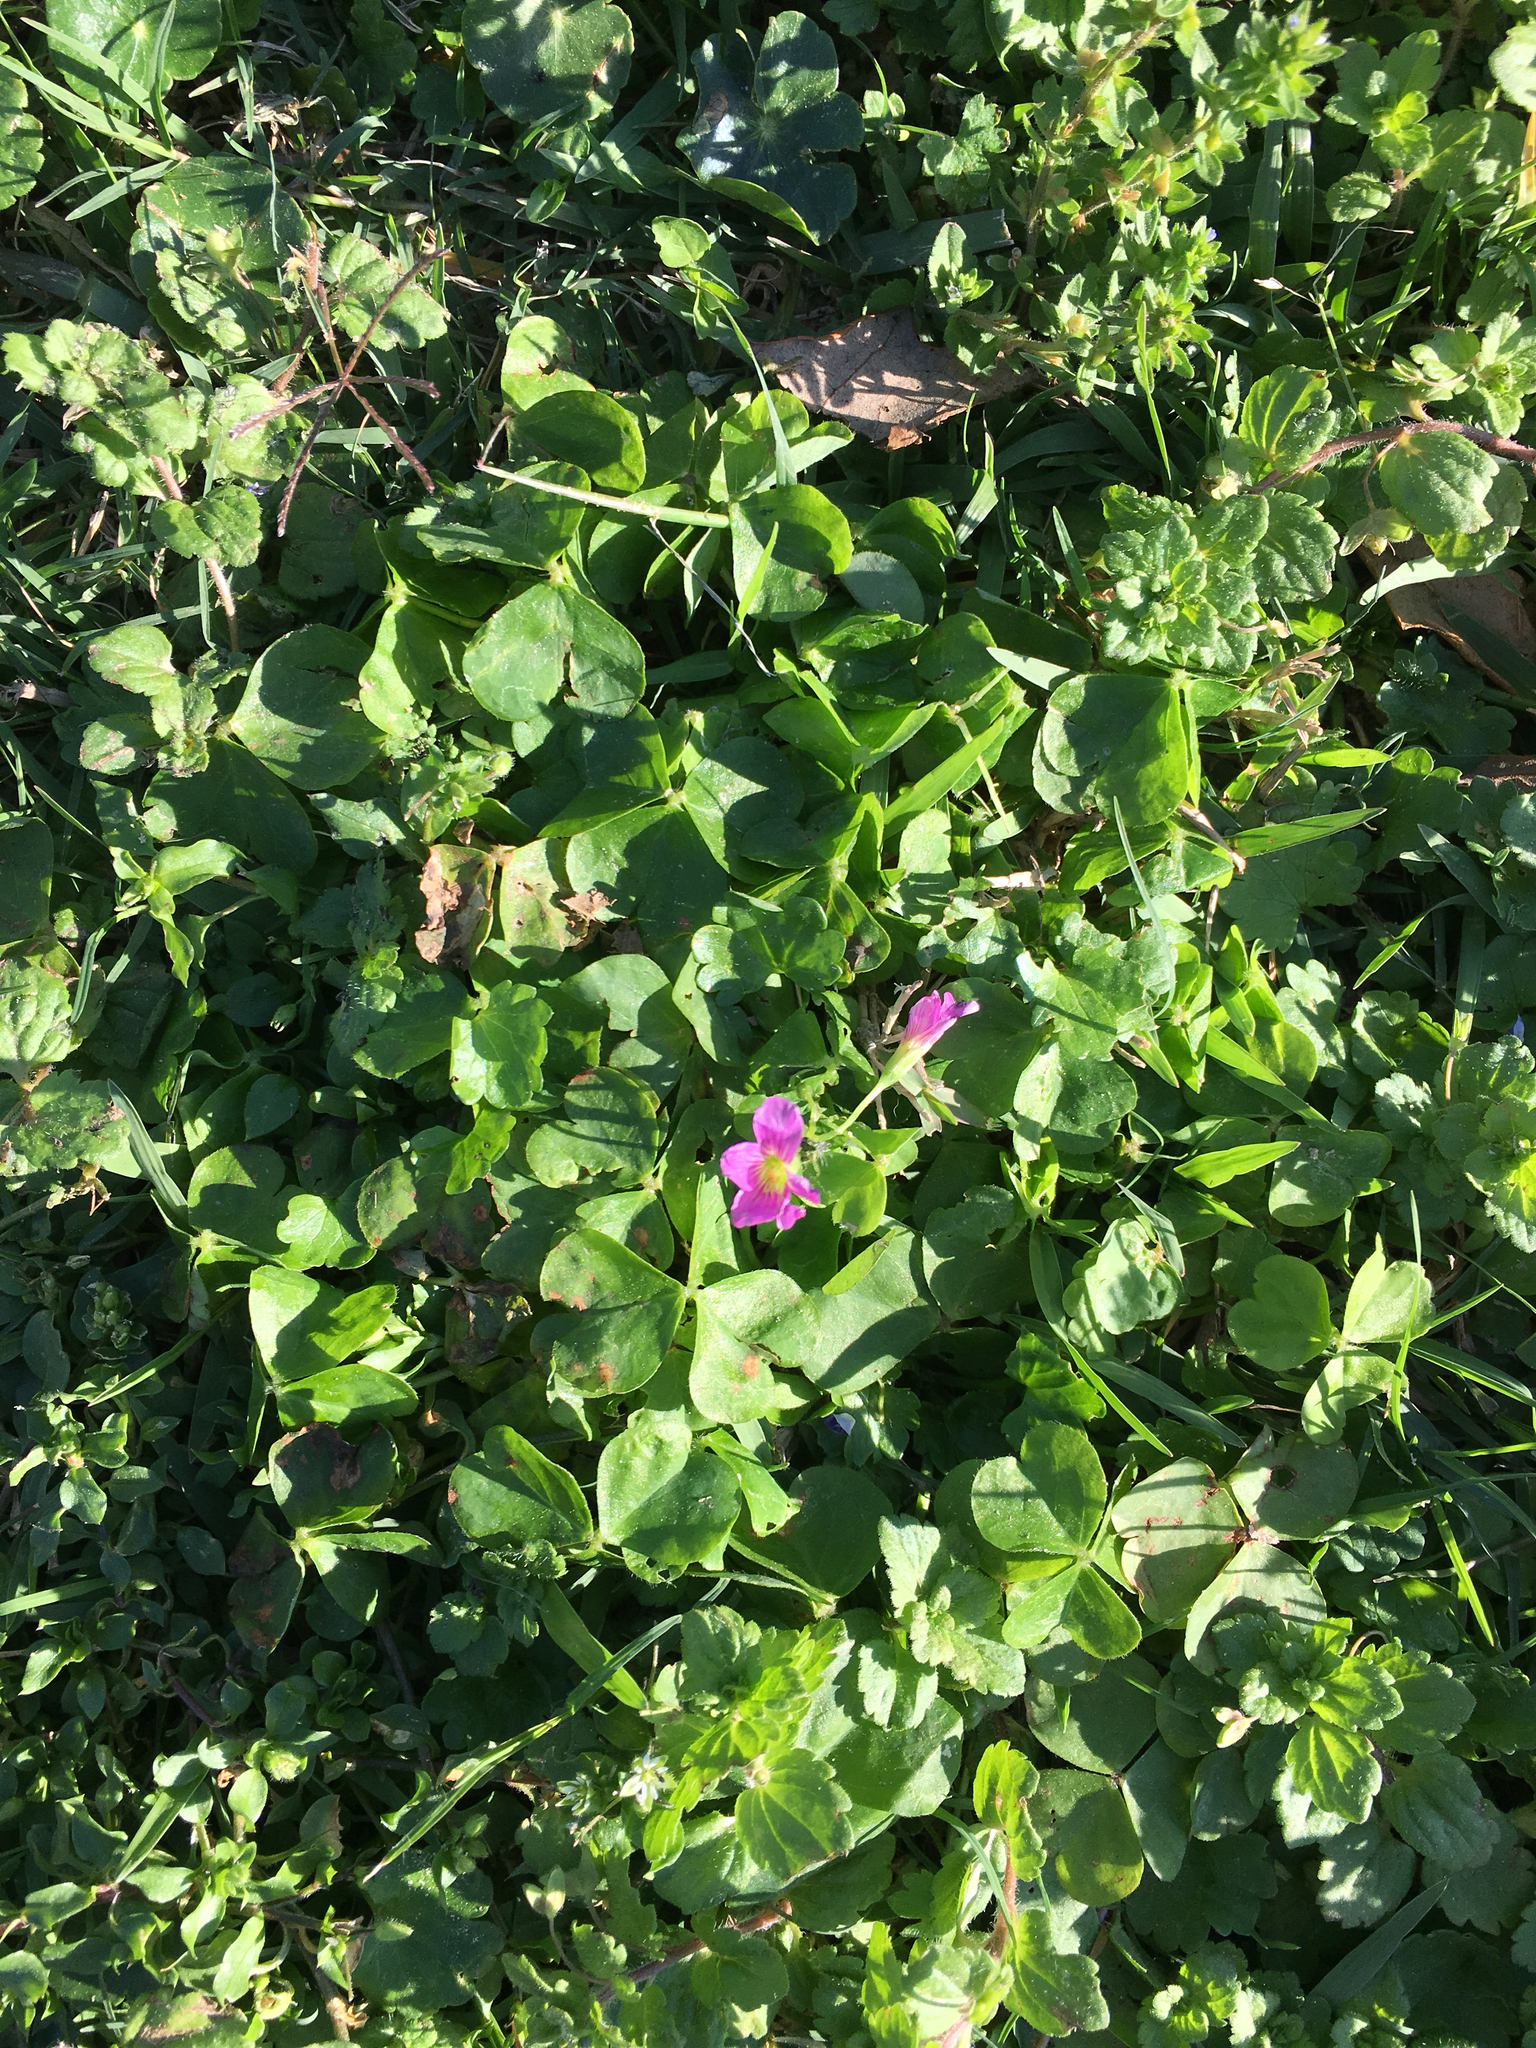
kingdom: Plantae
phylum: Tracheophyta
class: Magnoliopsida
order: Oxalidales
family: Oxalidaceae
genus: Oxalis
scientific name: Oxalis debilis
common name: Large-flowered pink-sorrel
